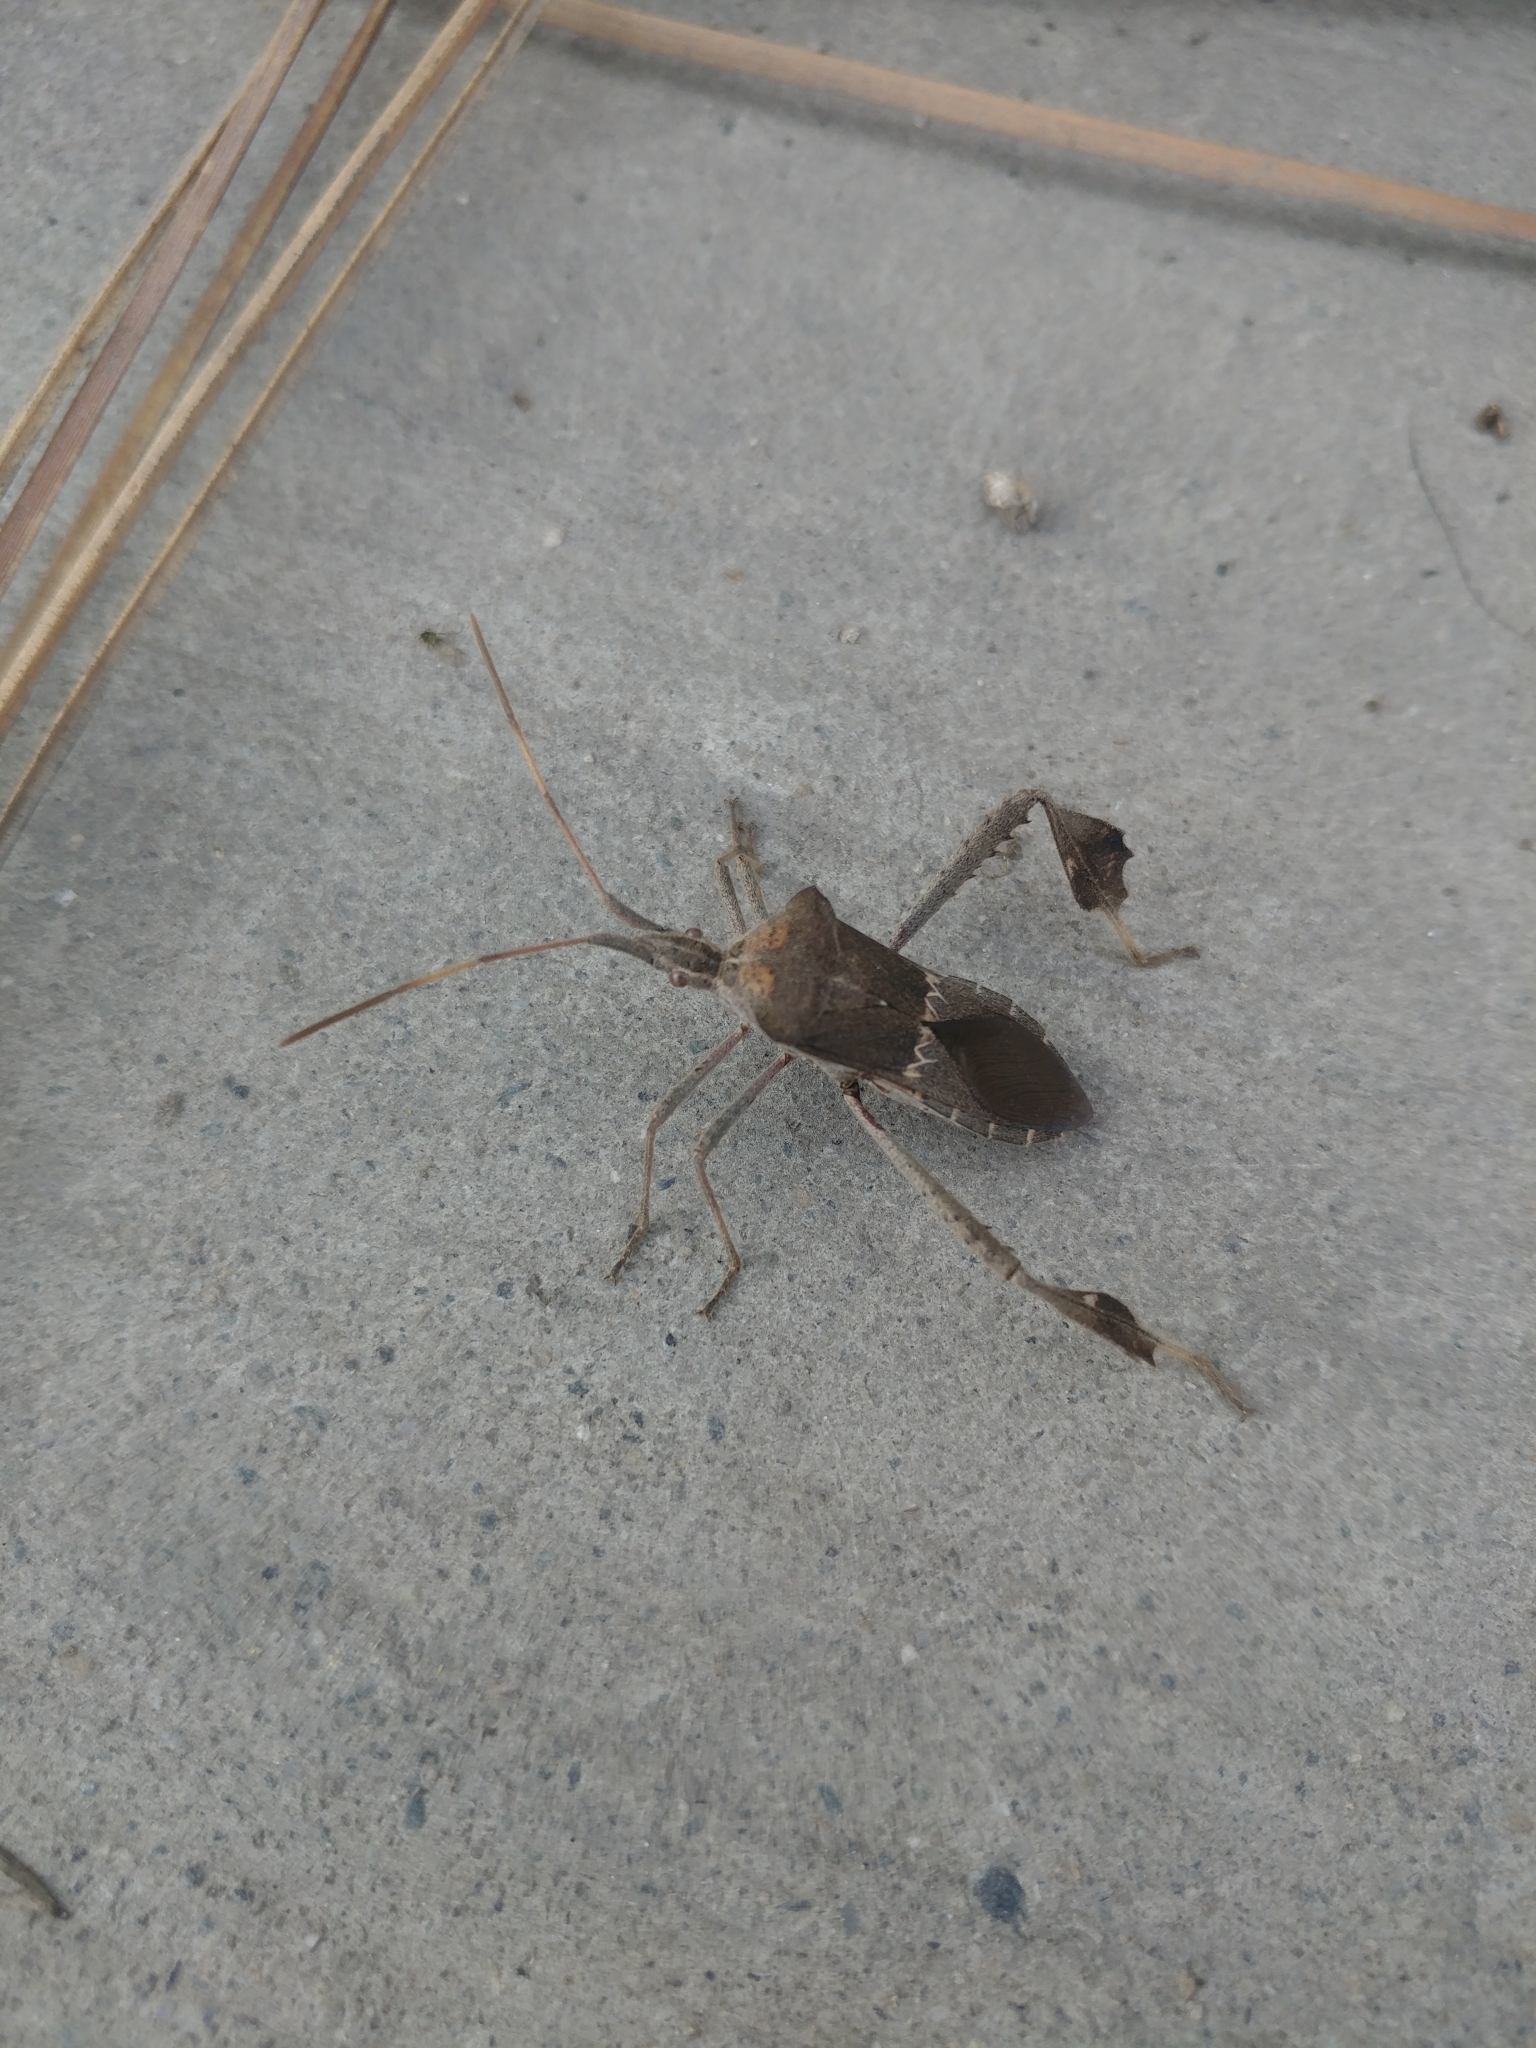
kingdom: Animalia
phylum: Arthropoda
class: Insecta
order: Hemiptera
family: Coreidae
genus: Leptoglossus
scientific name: Leptoglossus zonatus
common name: Large-legged bug
